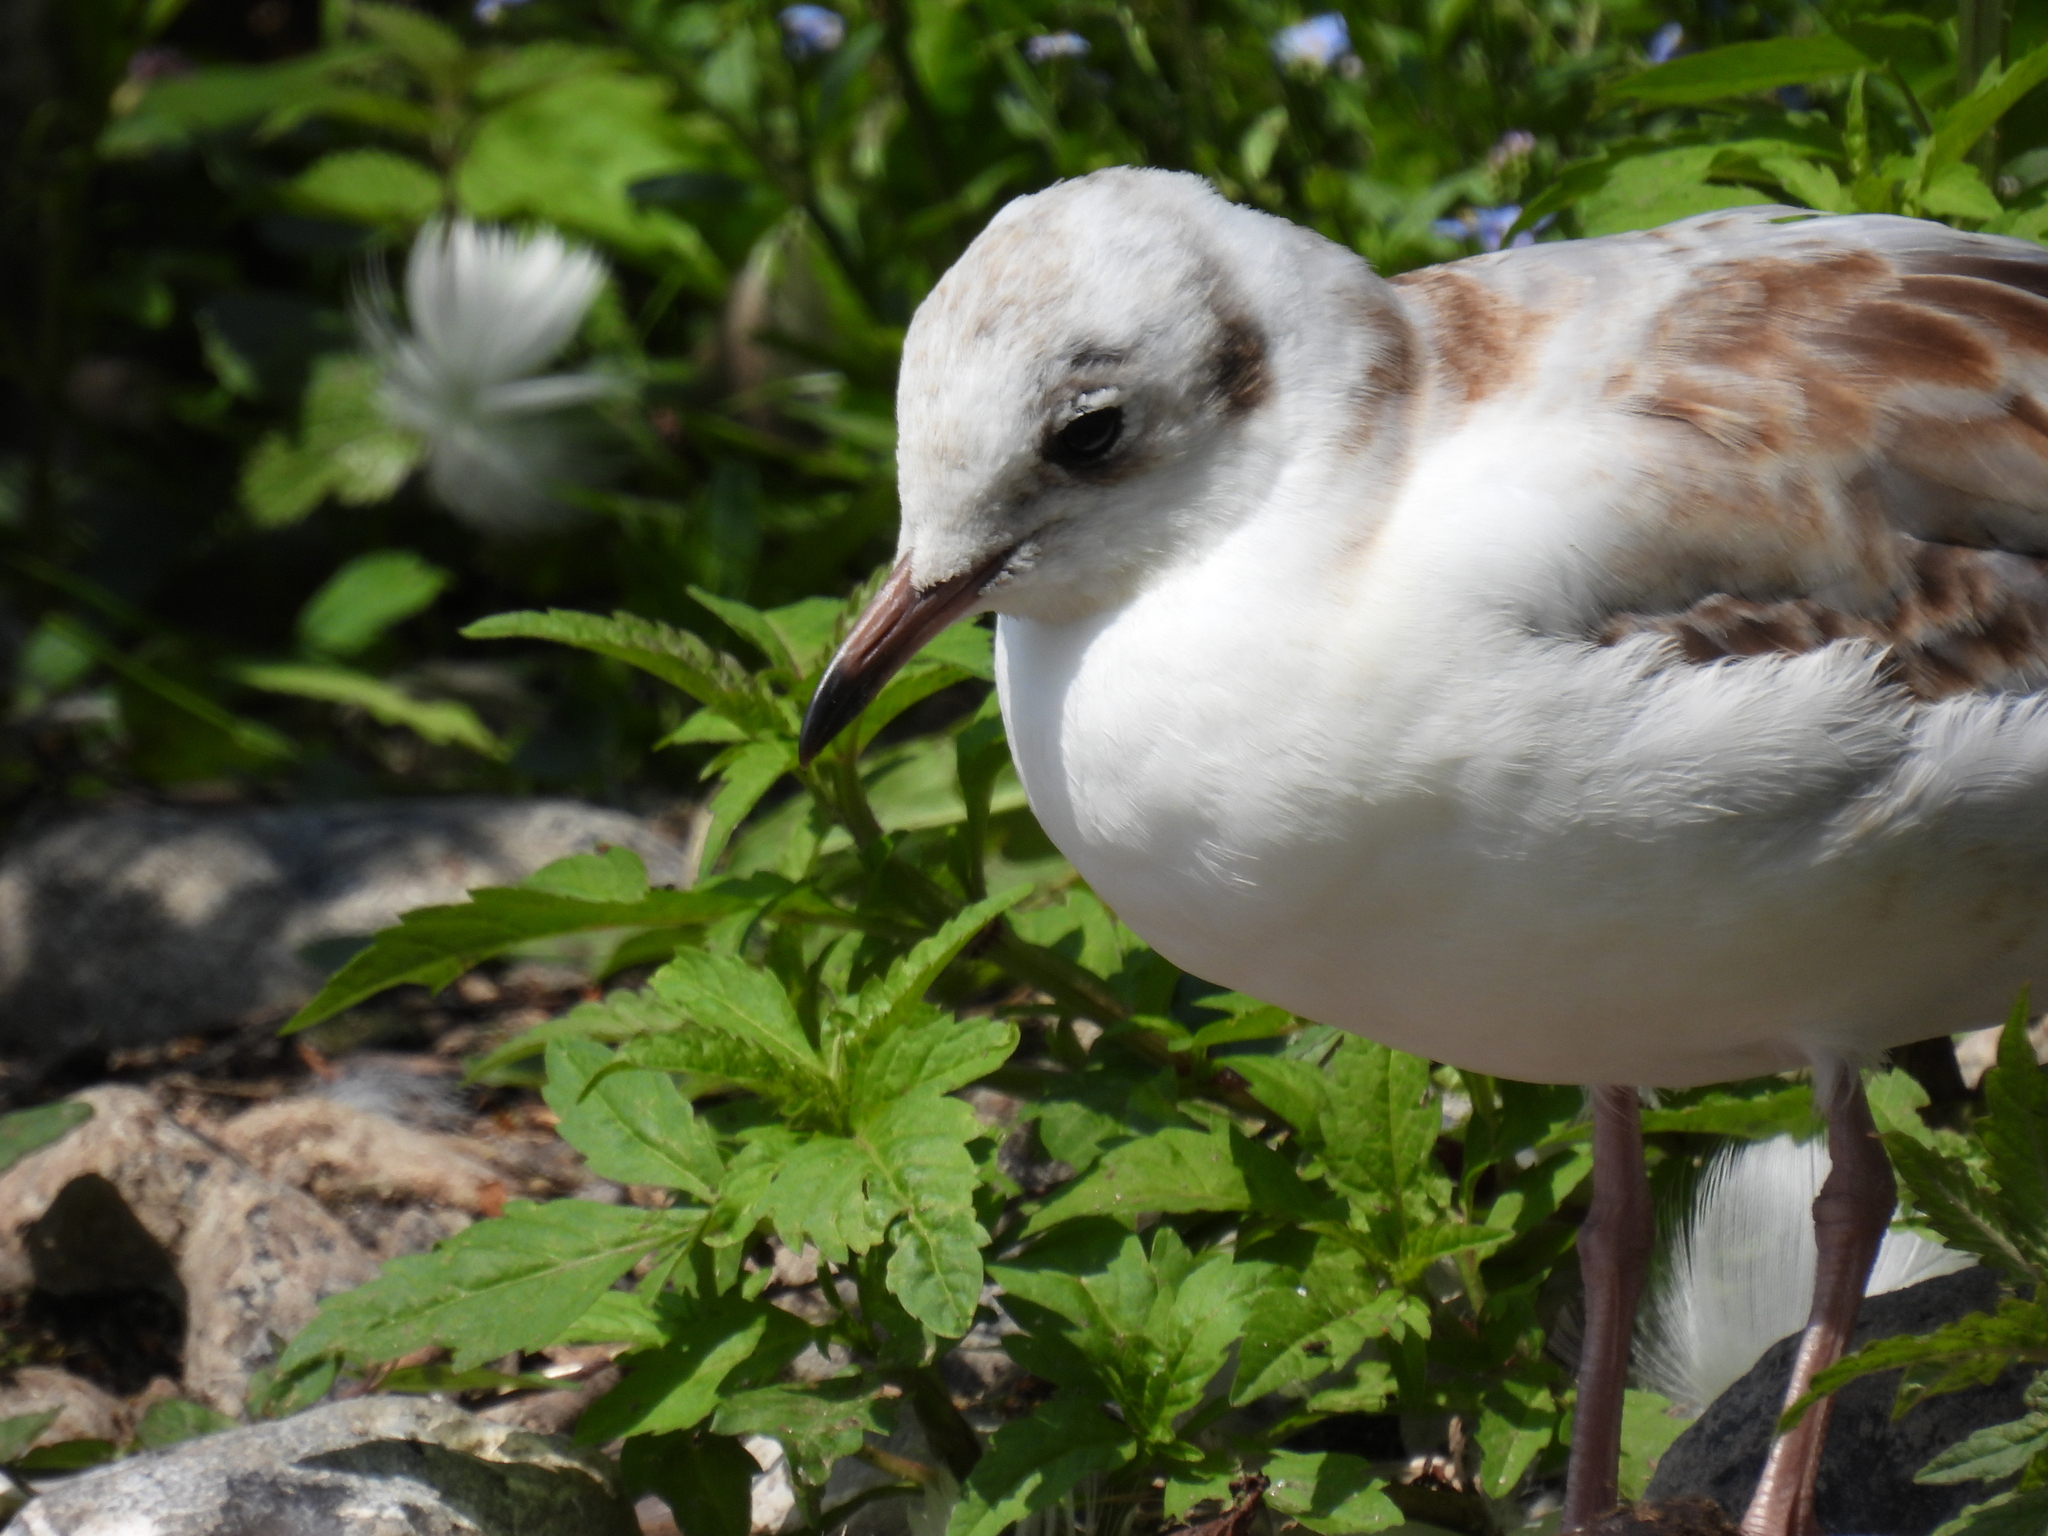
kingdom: Animalia
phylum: Chordata
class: Aves
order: Charadriiformes
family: Laridae
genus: Chroicocephalus
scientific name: Chroicocephalus ridibundus
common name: Black-headed gull
